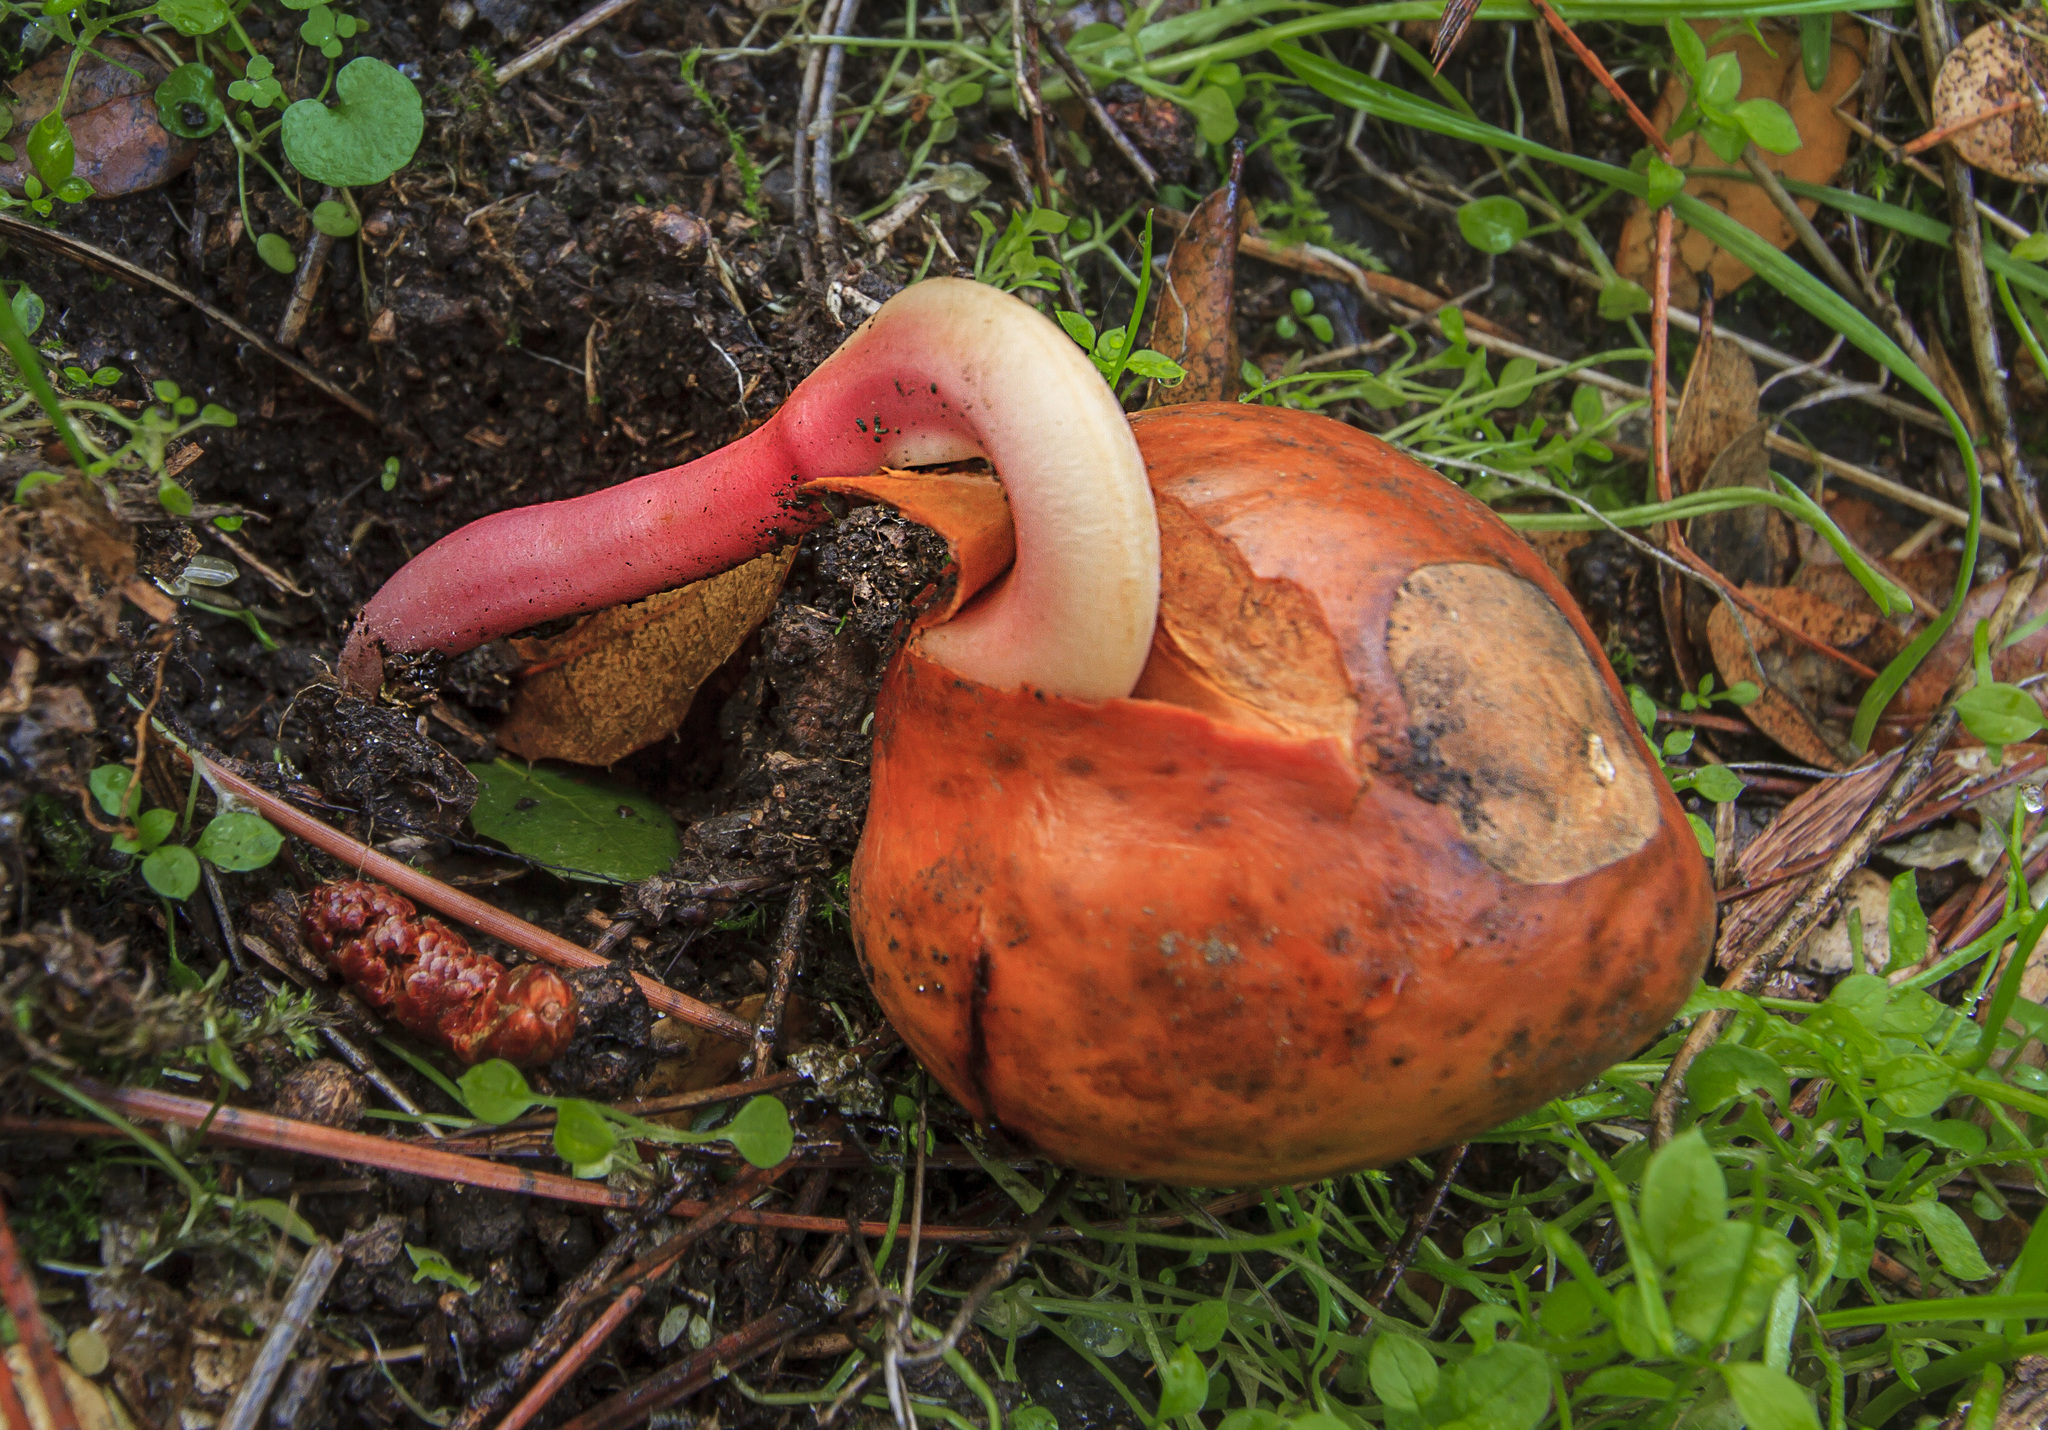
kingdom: Plantae
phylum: Tracheophyta
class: Magnoliopsida
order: Sapindales
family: Sapindaceae
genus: Aesculus
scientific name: Aesculus californica
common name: California buckeye
